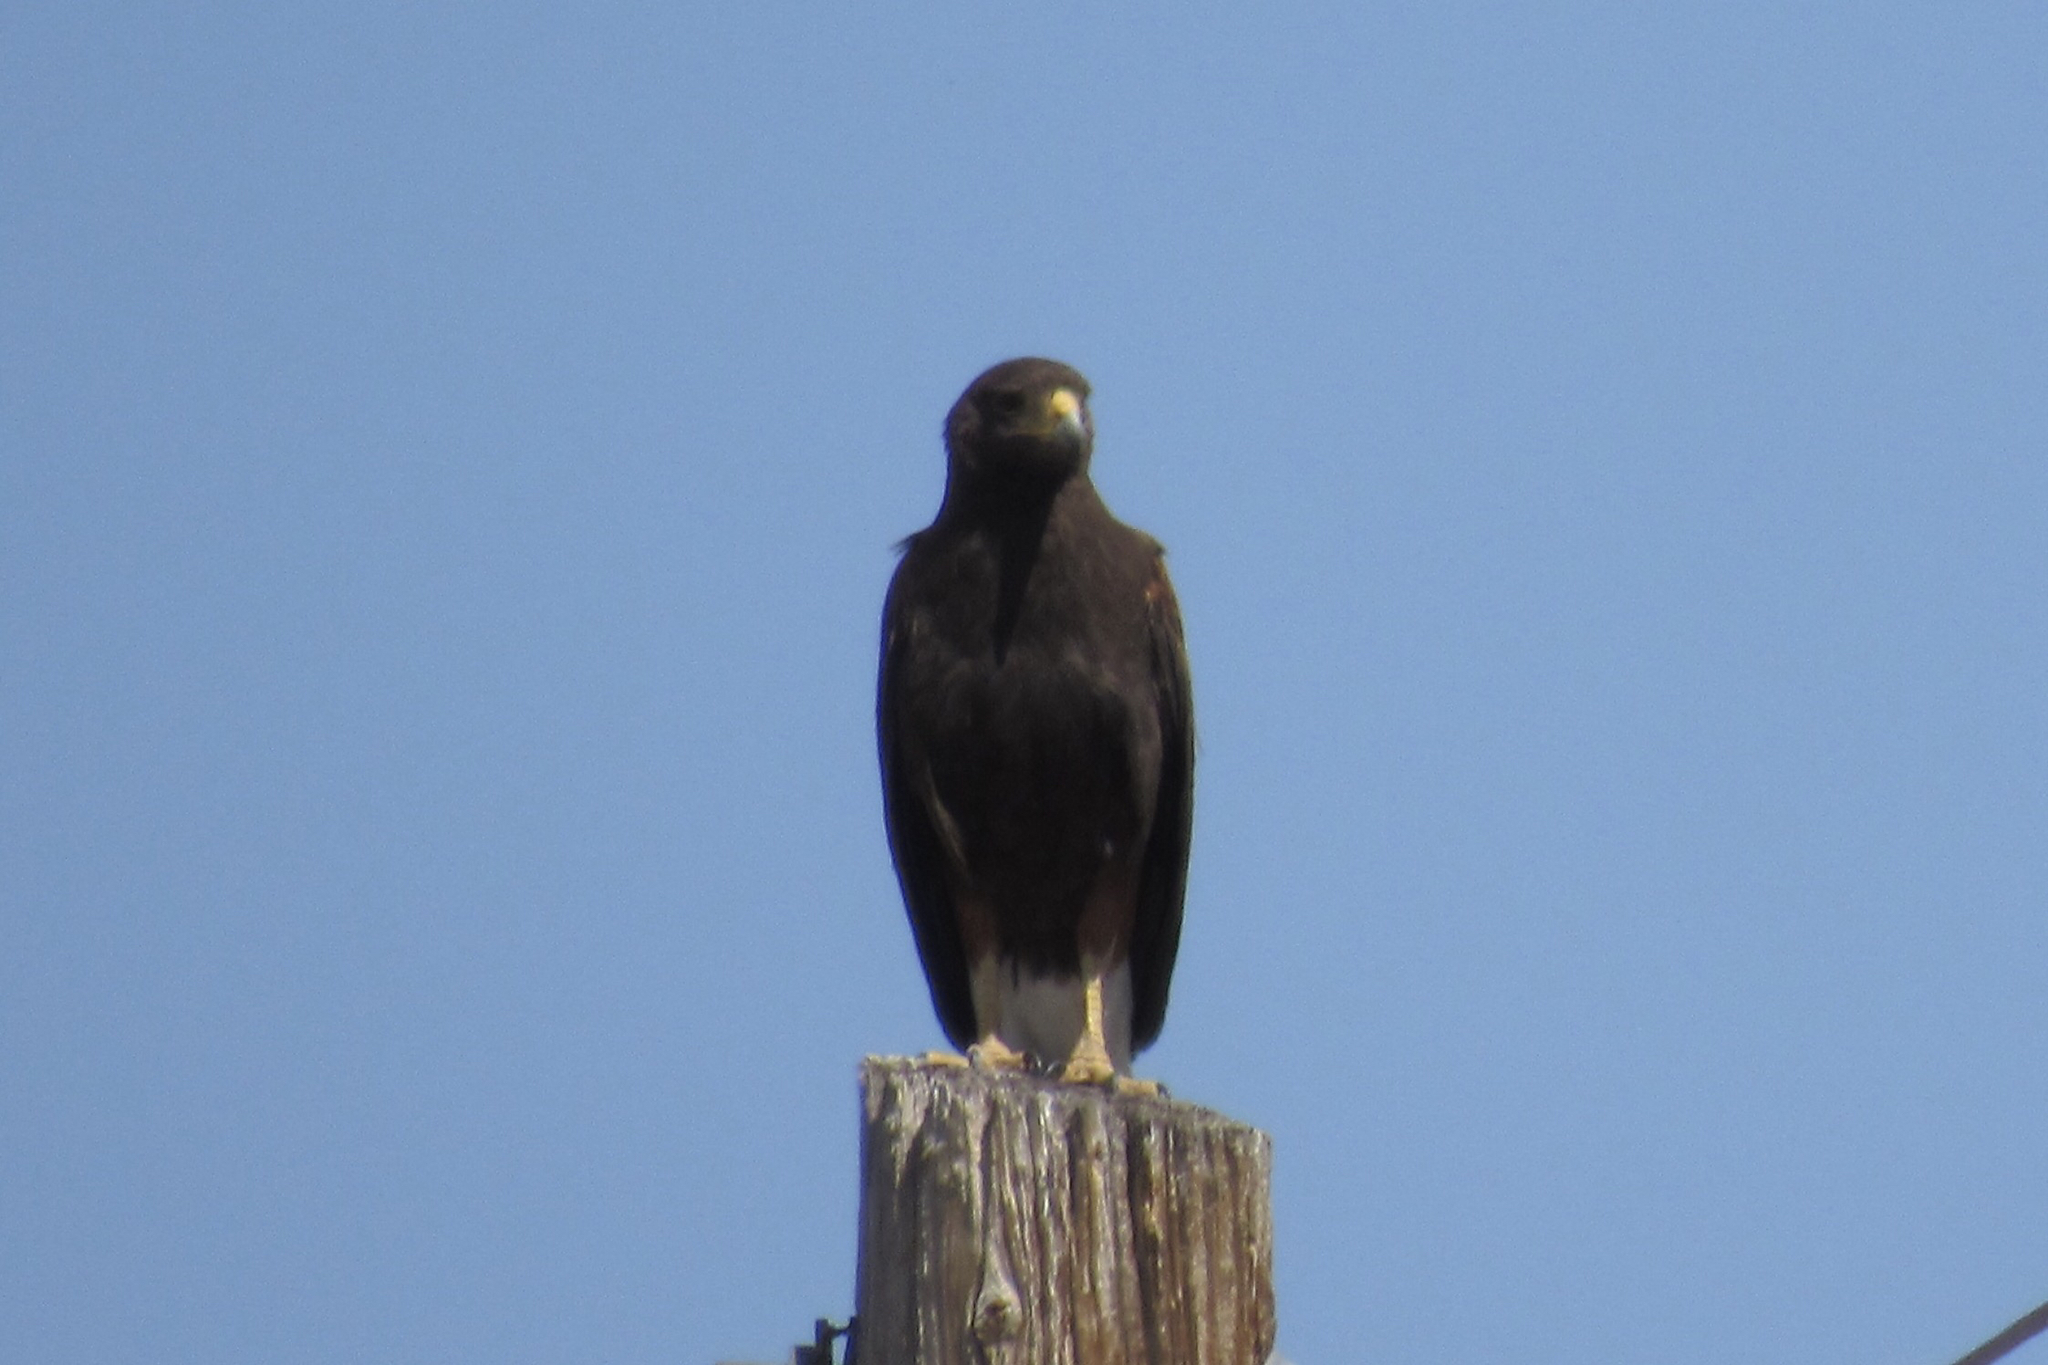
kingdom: Animalia
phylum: Chordata
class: Aves
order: Accipitriformes
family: Accipitridae
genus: Parabuteo
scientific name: Parabuteo unicinctus
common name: Harris's hawk
